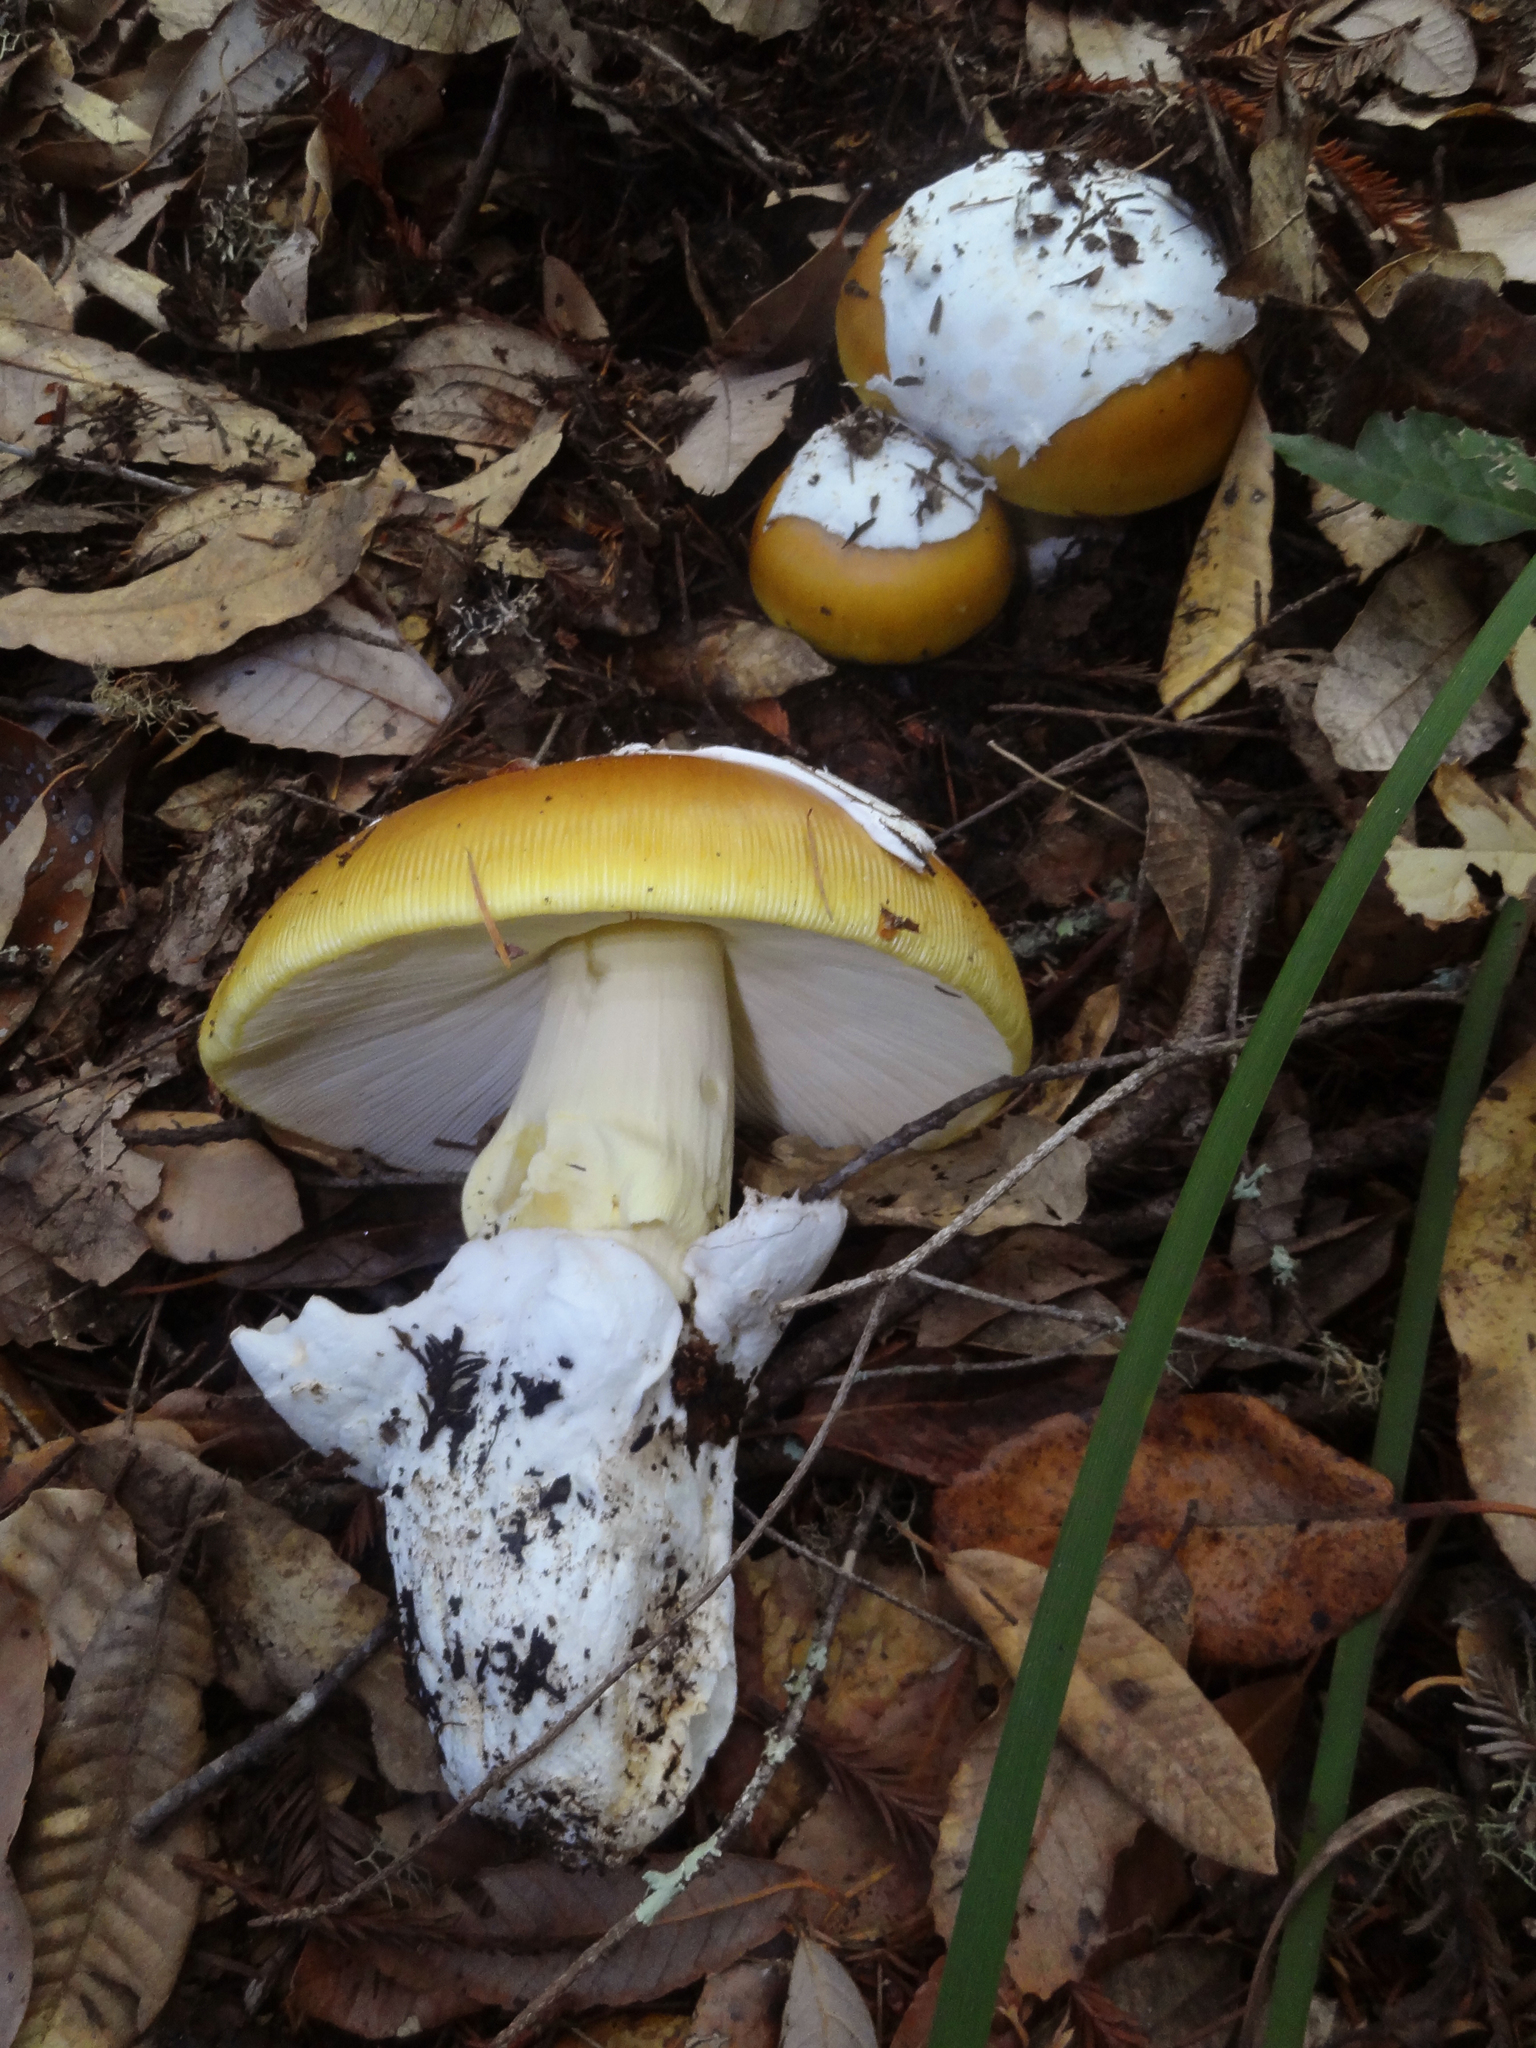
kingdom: Fungi
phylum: Basidiomycota
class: Agaricomycetes
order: Agaricales
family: Amanitaceae
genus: Amanita
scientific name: Amanita calyptroderma
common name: Coccora
